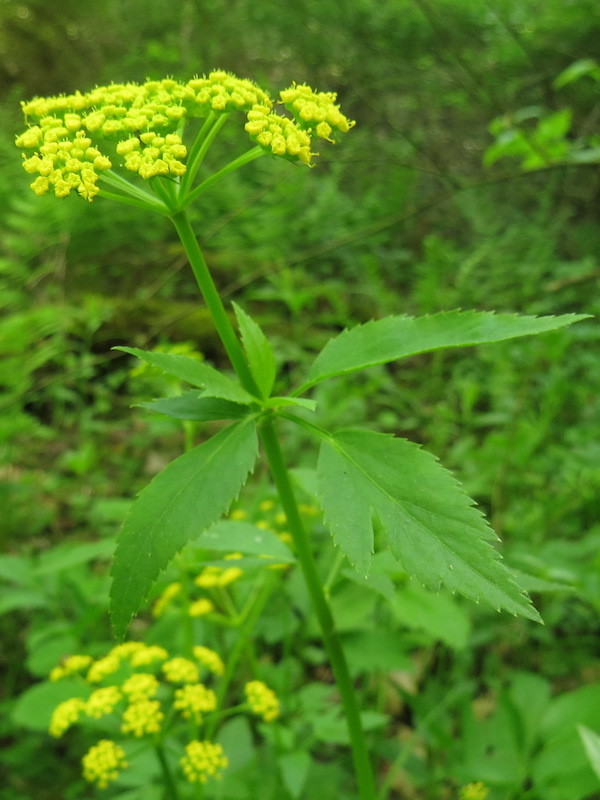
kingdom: Plantae
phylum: Tracheophyta
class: Magnoliopsida
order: Apiales
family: Apiaceae
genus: Zizia
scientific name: Zizia aurea
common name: Golden alexanders
